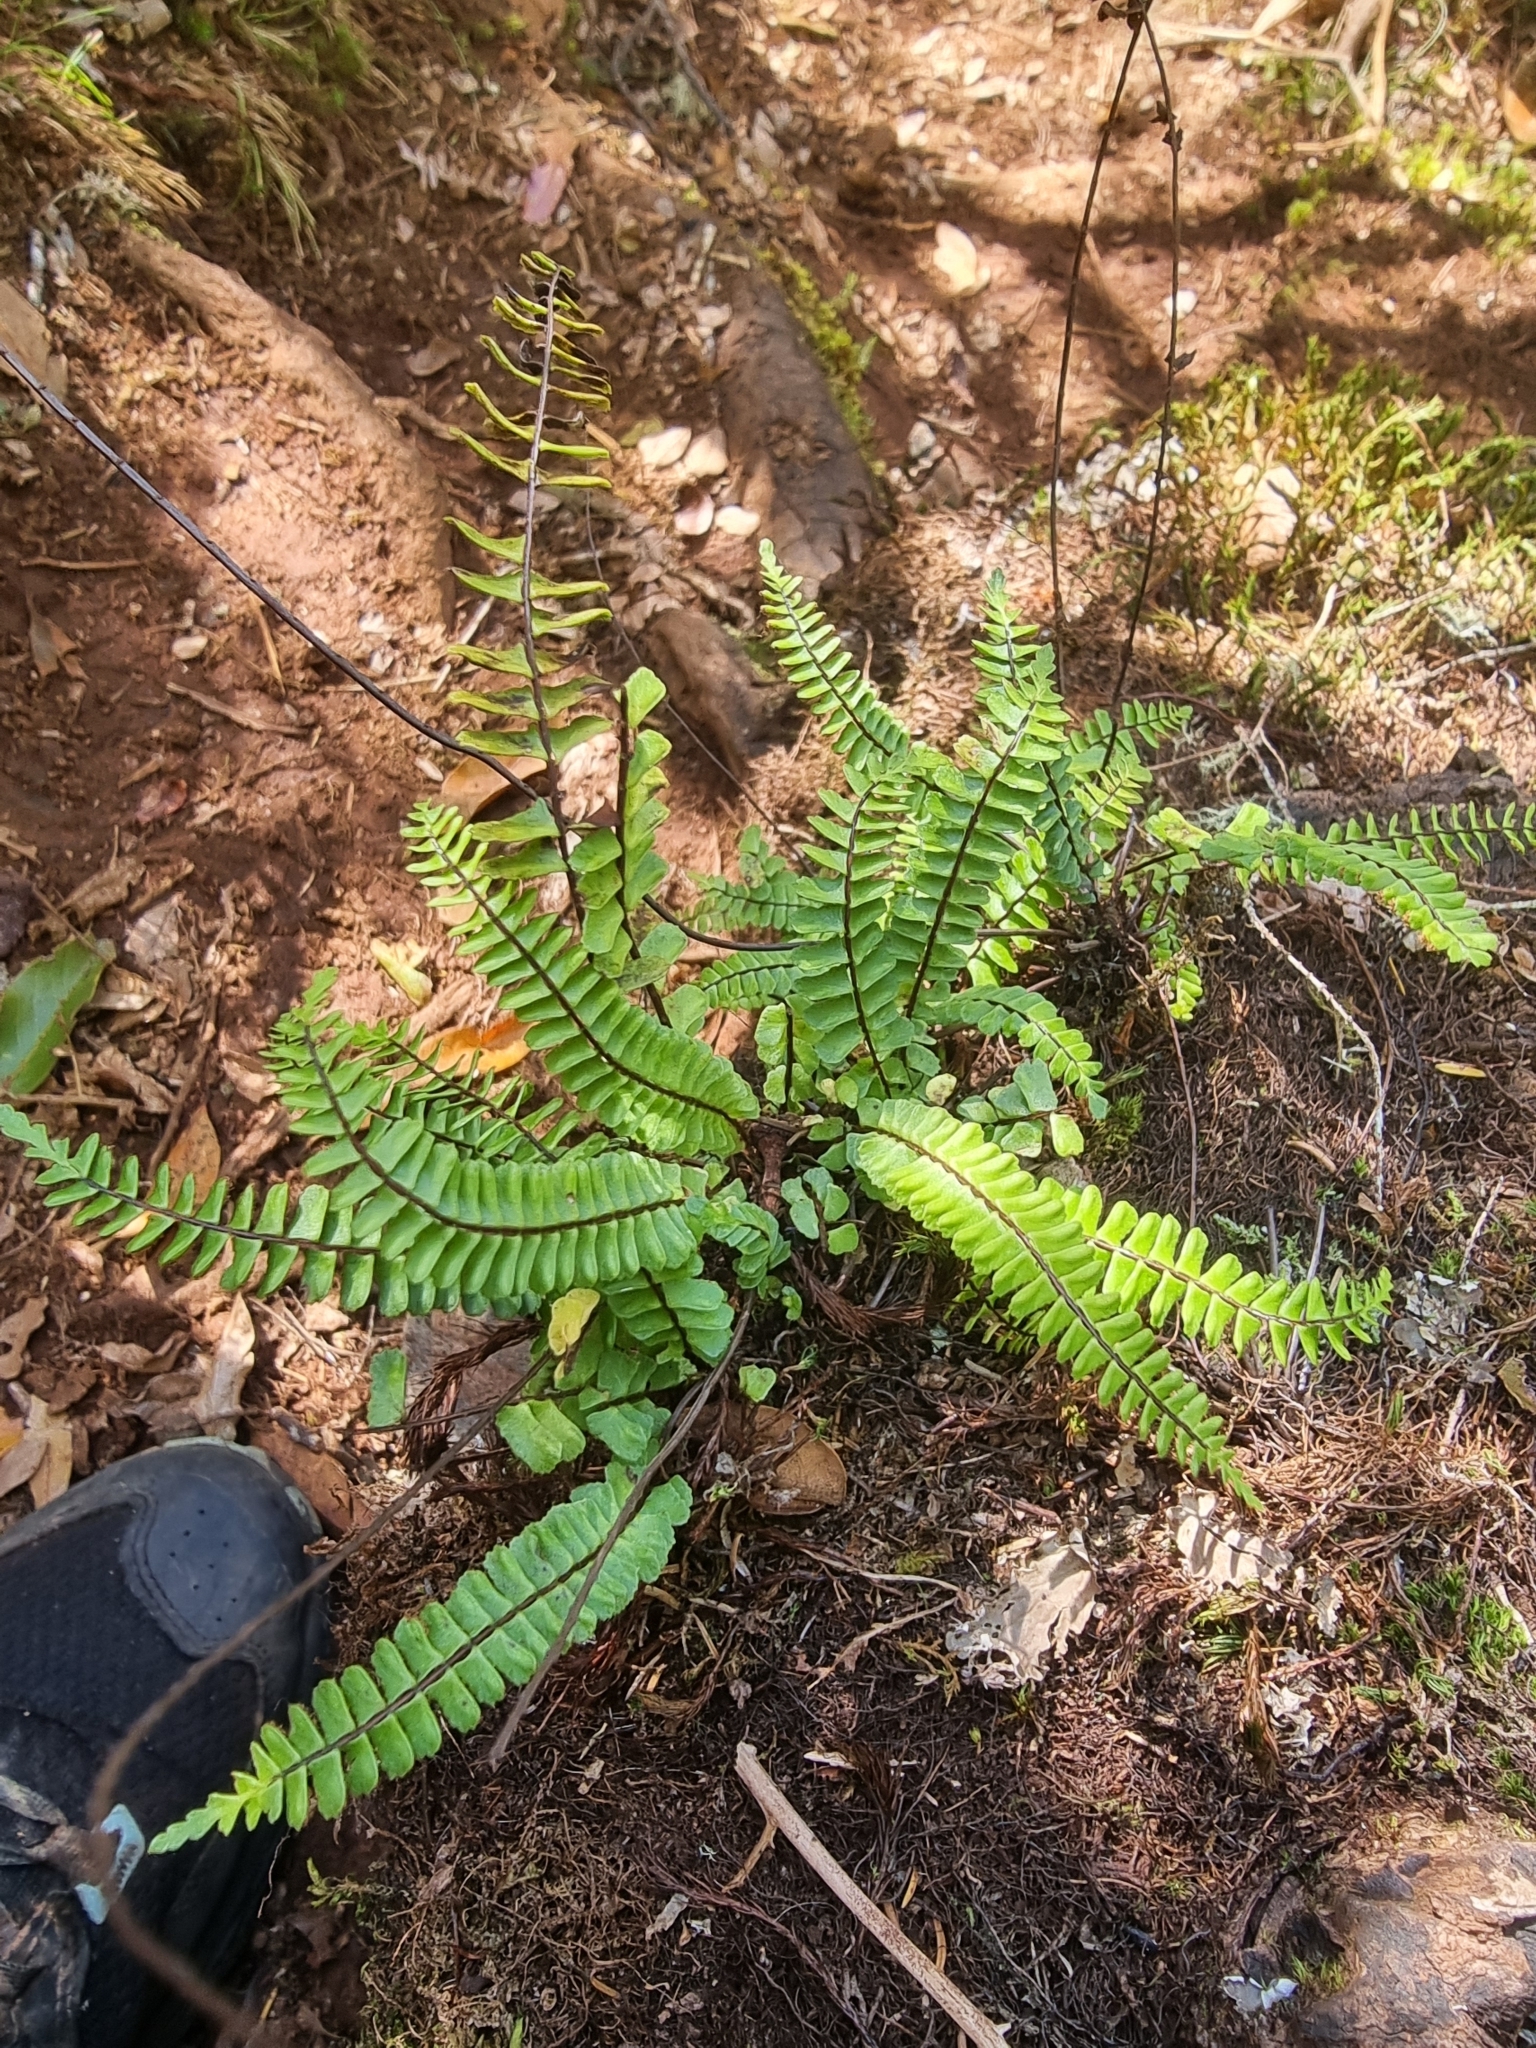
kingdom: Plantae
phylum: Tracheophyta
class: Polypodiopsida
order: Polypodiales
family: Aspleniaceae
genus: Asplenium
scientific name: Asplenium monanthes
